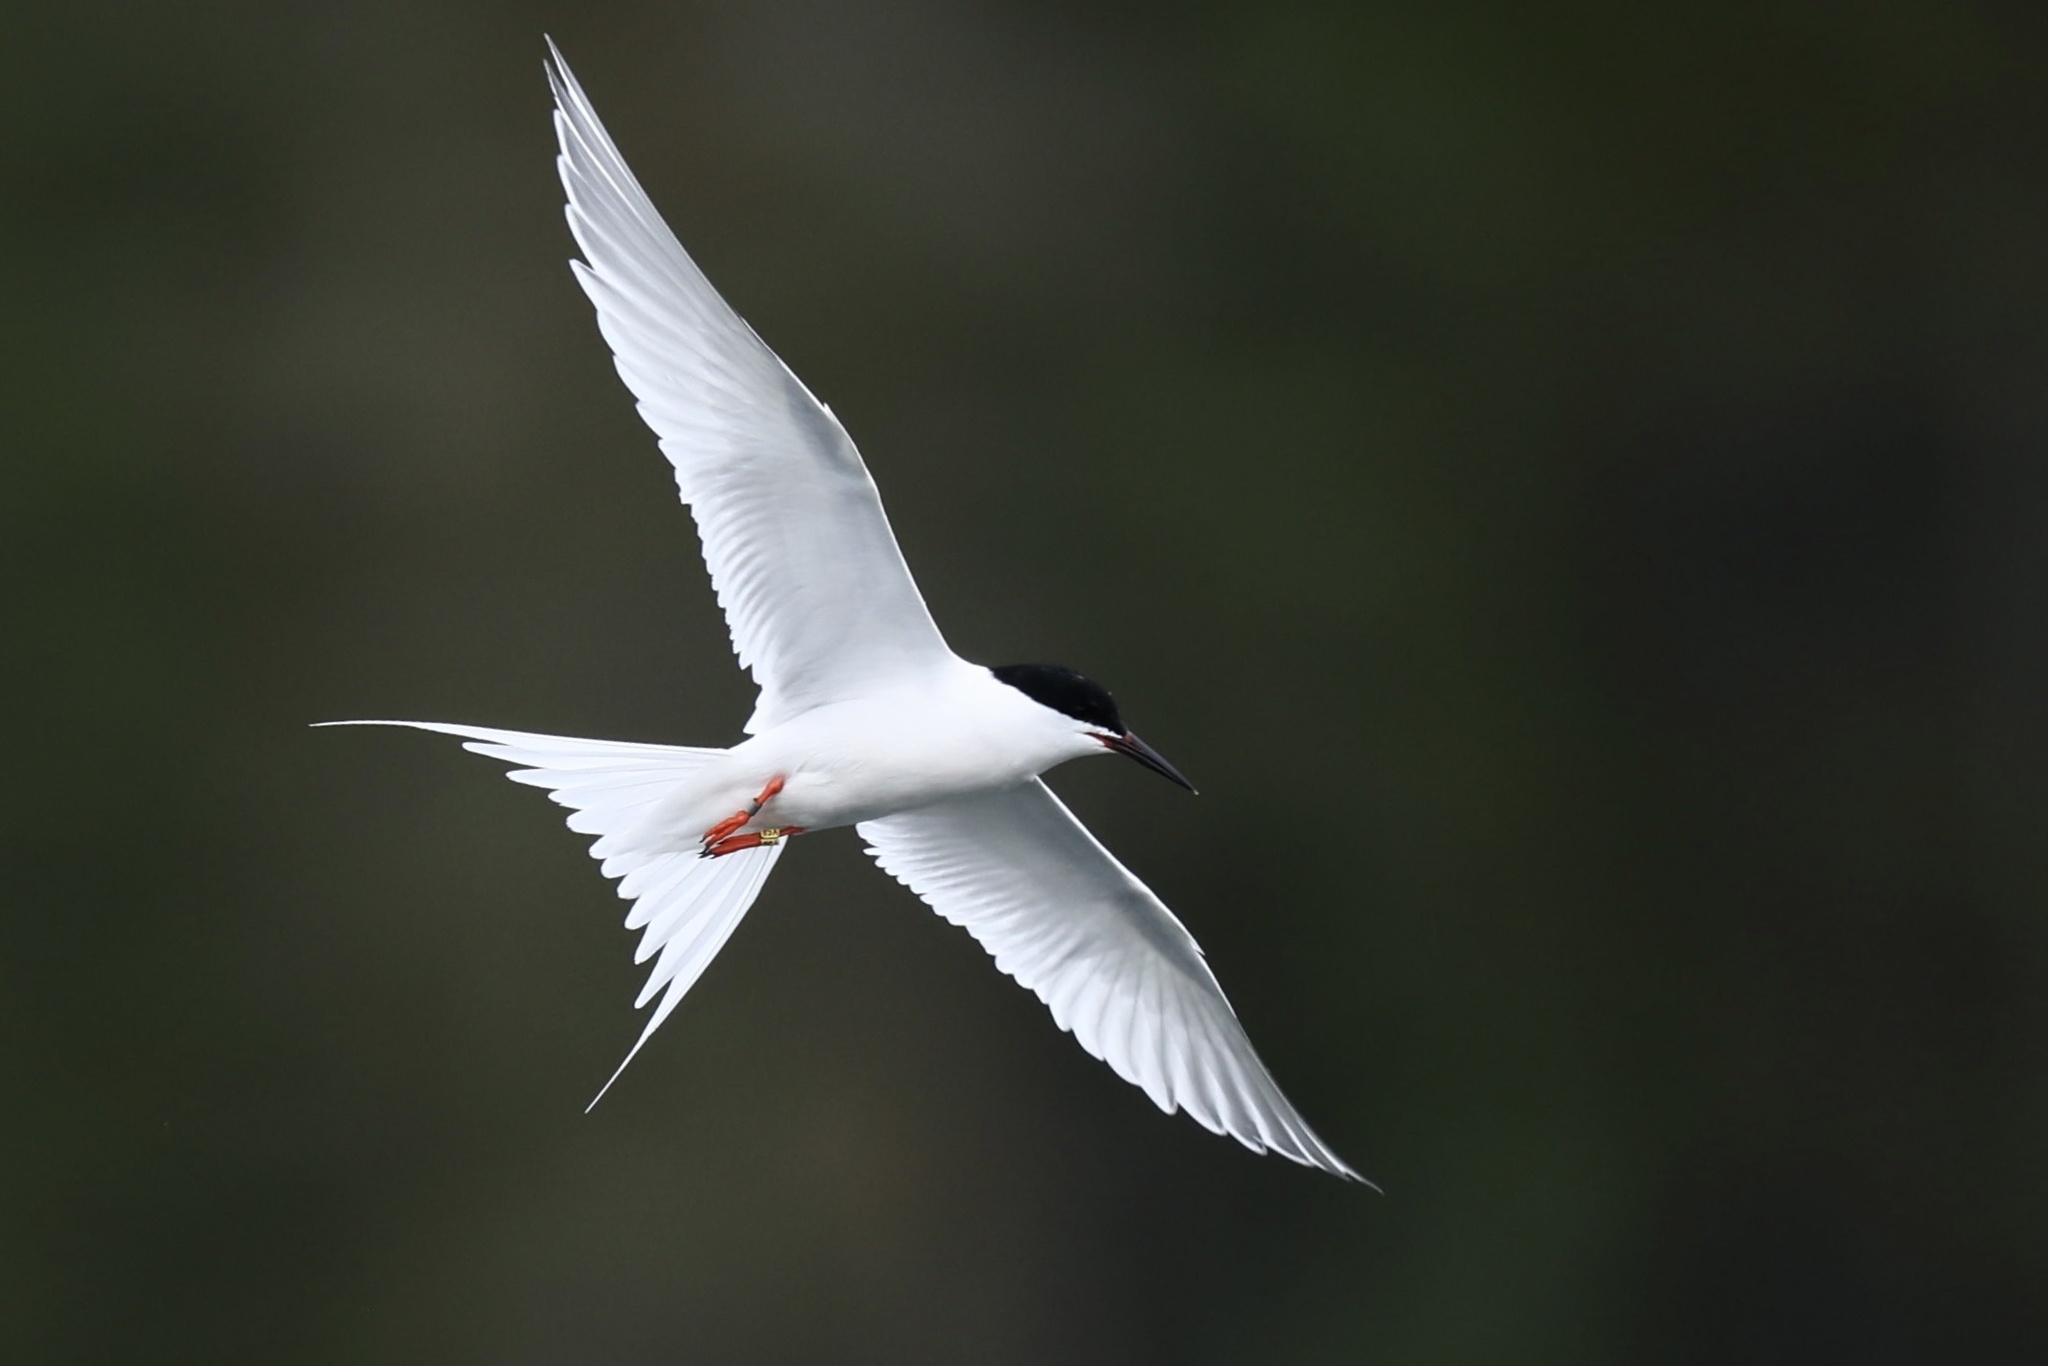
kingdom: Animalia
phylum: Chordata
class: Aves
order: Charadriiformes
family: Laridae
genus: Sterna
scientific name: Sterna dougallii
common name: Roseate tern
